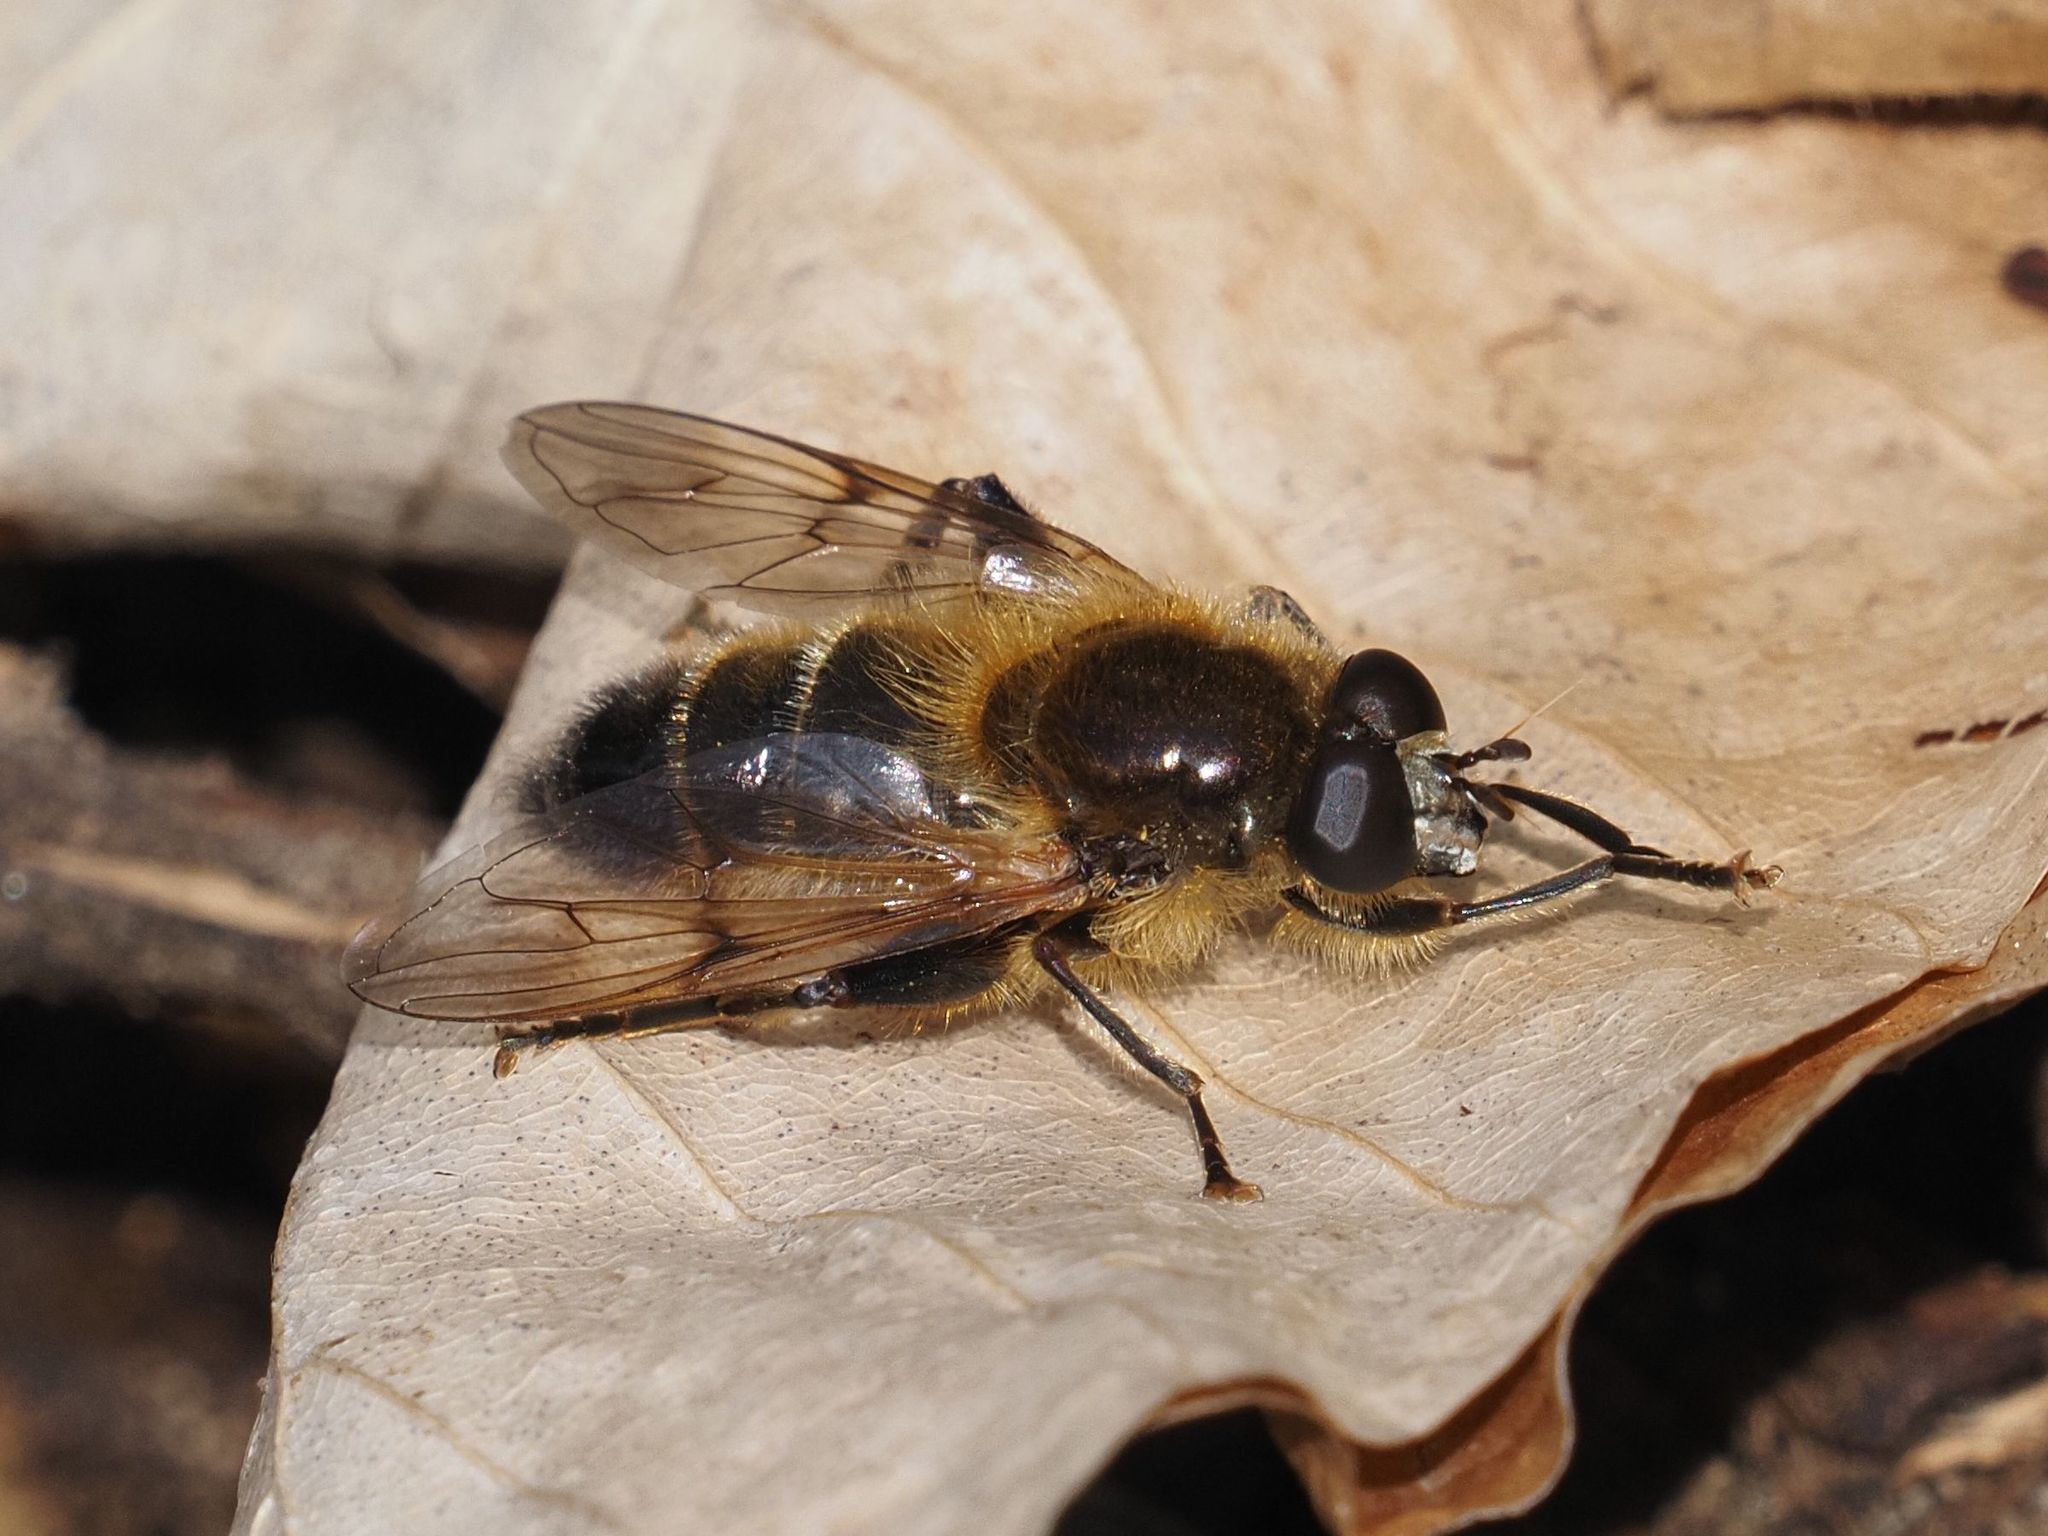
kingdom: Animalia
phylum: Arthropoda
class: Insecta
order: Diptera
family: Syrphidae
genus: Brachypalpus
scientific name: Brachypalpus valgus
